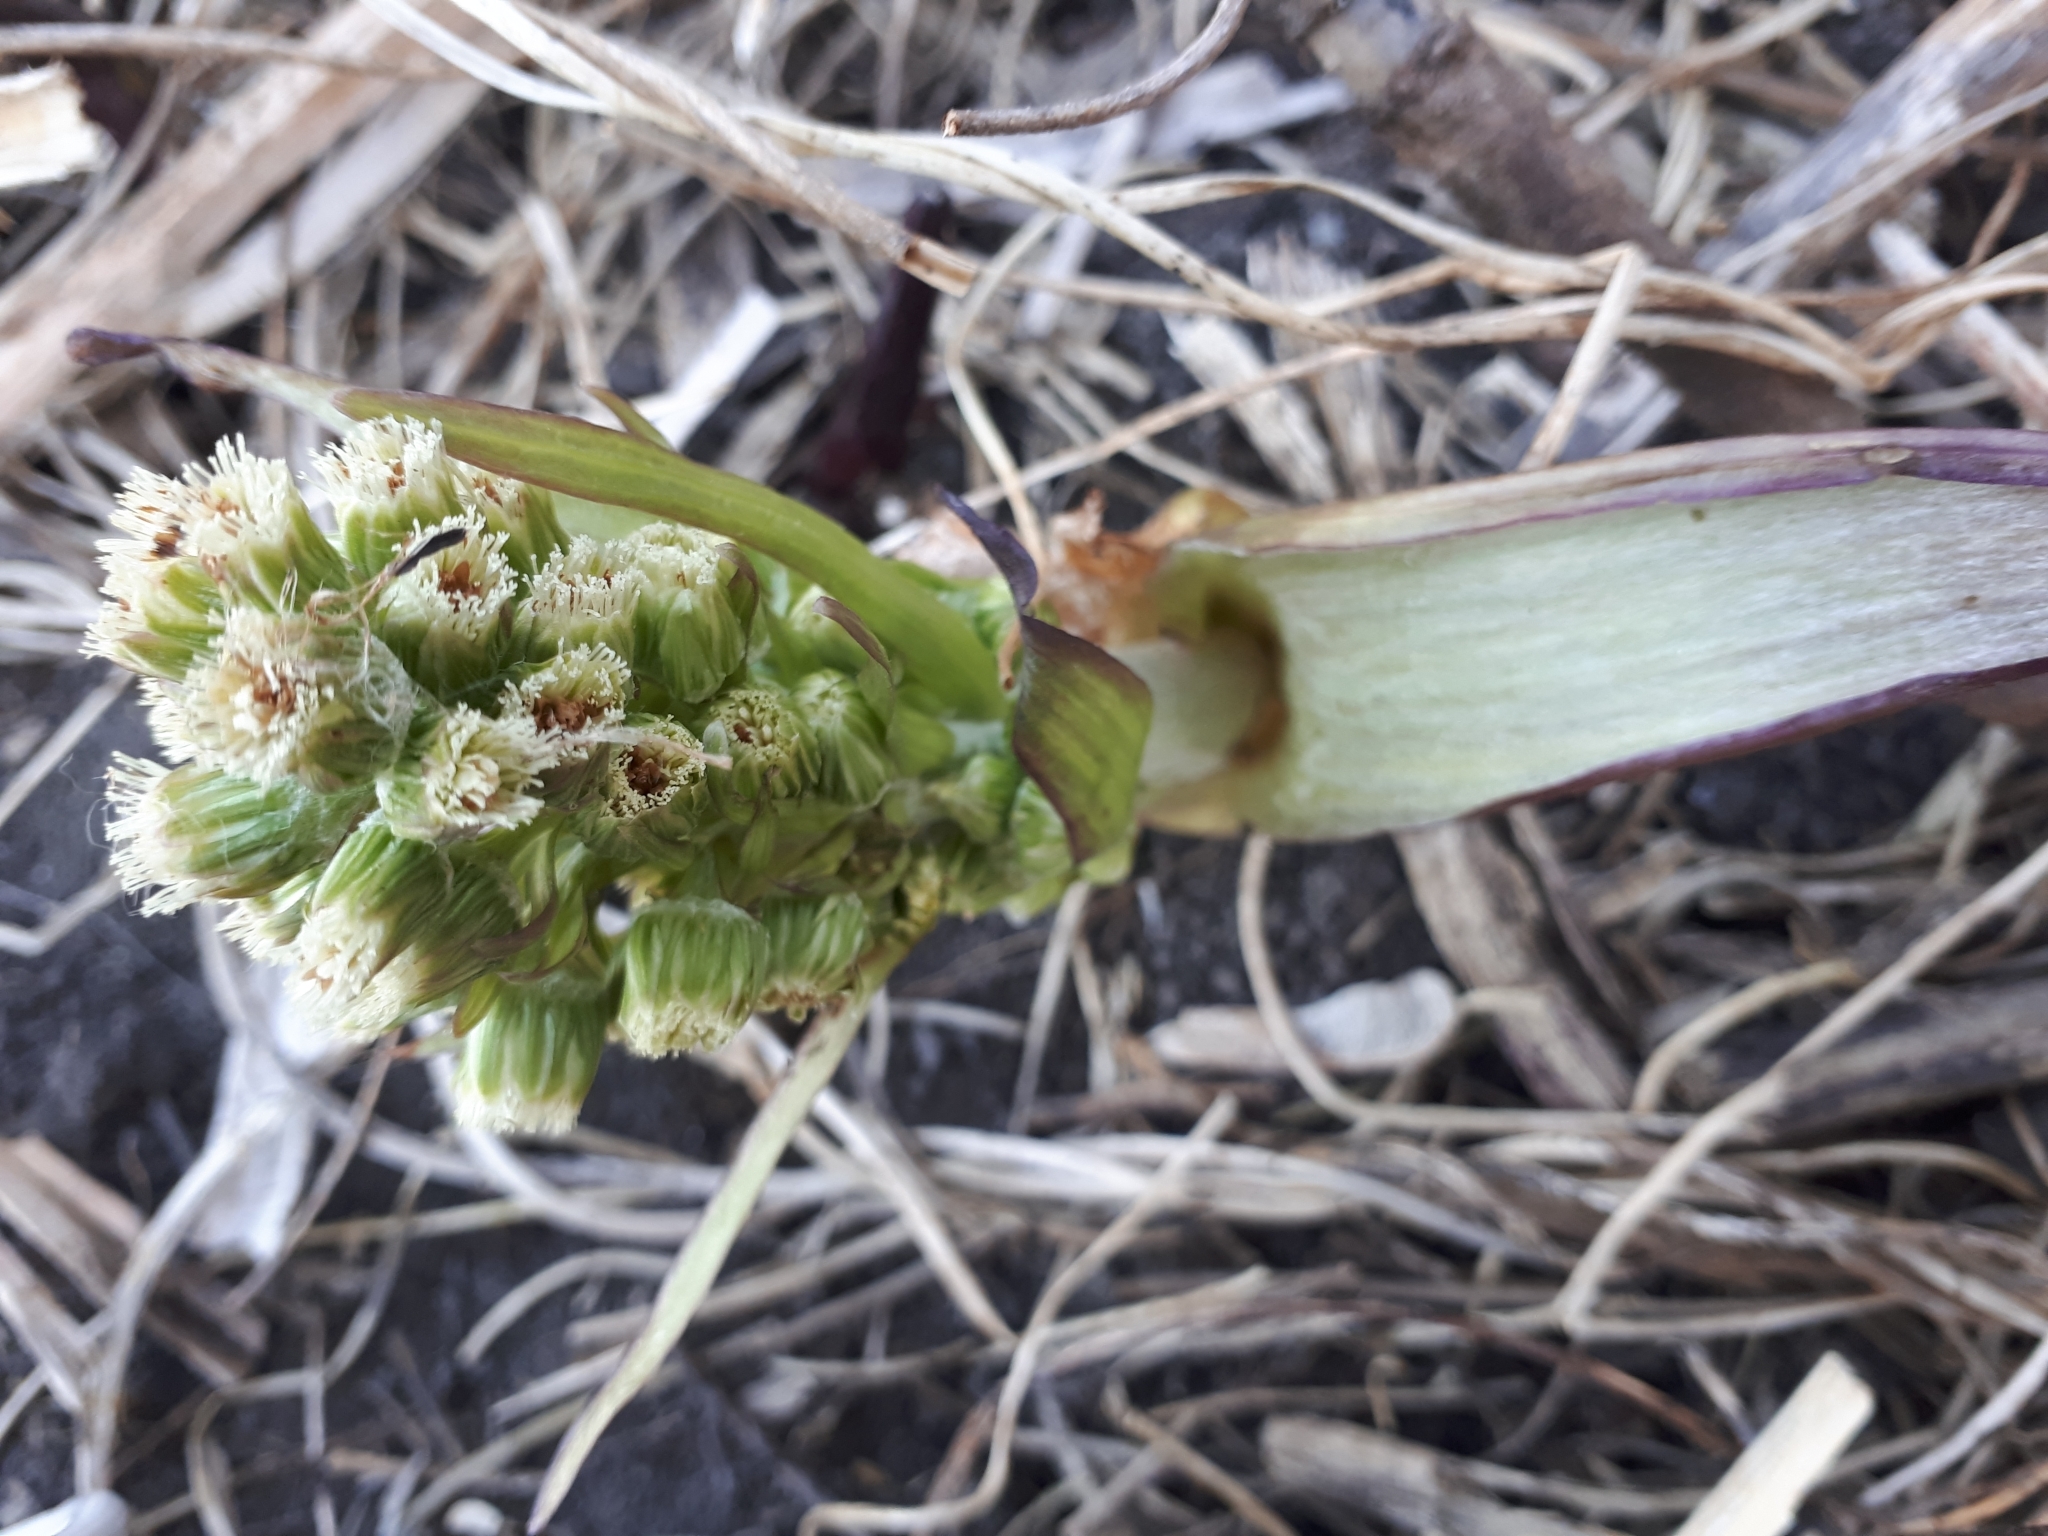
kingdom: Plantae
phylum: Tracheophyta
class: Magnoliopsida
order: Asterales
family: Asteraceae
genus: Petasites
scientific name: Petasites spurius
